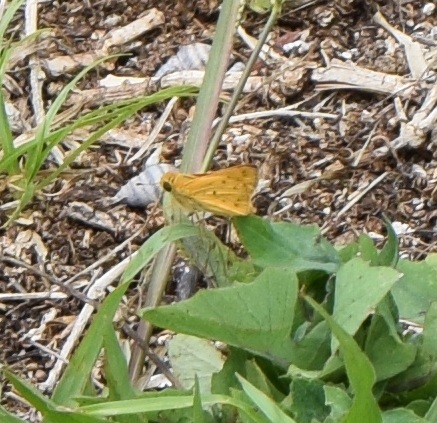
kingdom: Animalia
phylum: Arthropoda
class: Insecta
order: Lepidoptera
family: Hesperiidae
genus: Hylephila
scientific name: Hylephila phyleus
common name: Fiery skipper
